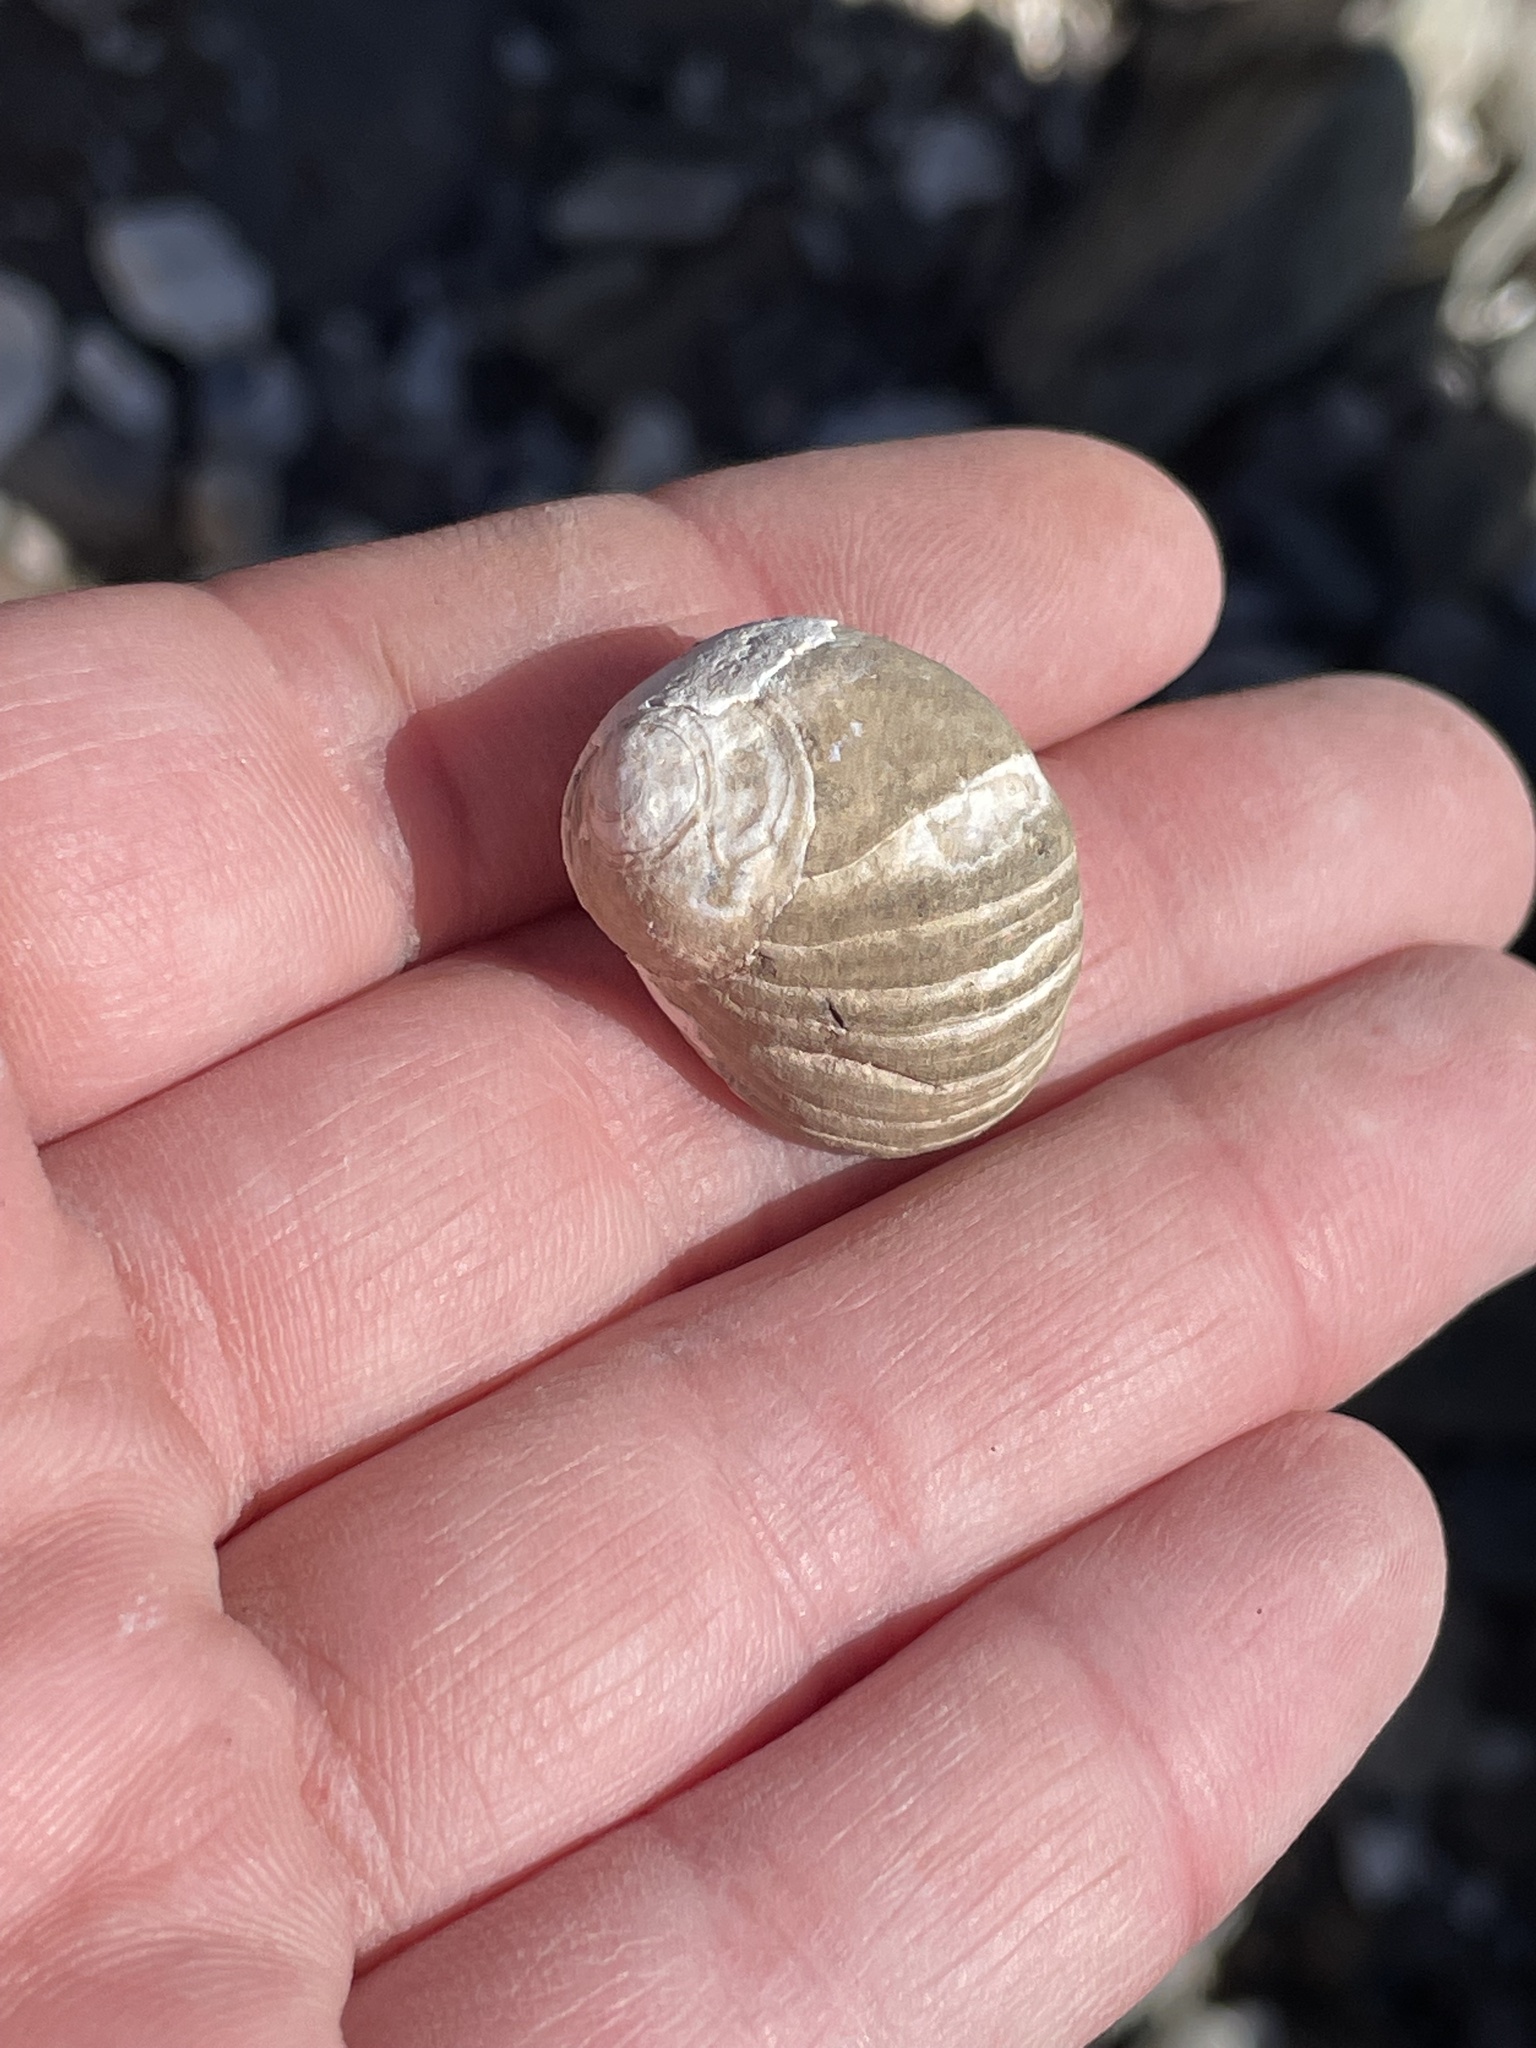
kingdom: Animalia
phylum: Mollusca
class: Gastropoda
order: Littorinimorpha
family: Littorinidae
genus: Littorina
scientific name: Littorina littorea
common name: Common periwinkle
